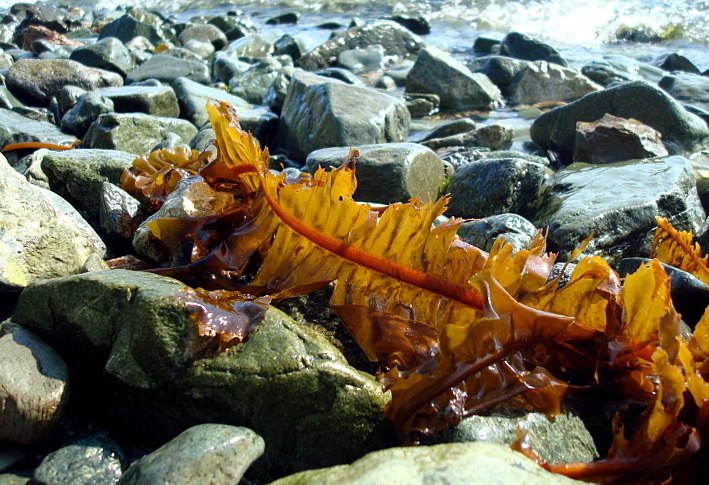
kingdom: Chromista
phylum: Ochrophyta
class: Phaeophyceae
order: Laminariales
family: Alariaceae
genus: Alaria
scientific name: Alaria esculenta
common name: Dabberlocks
